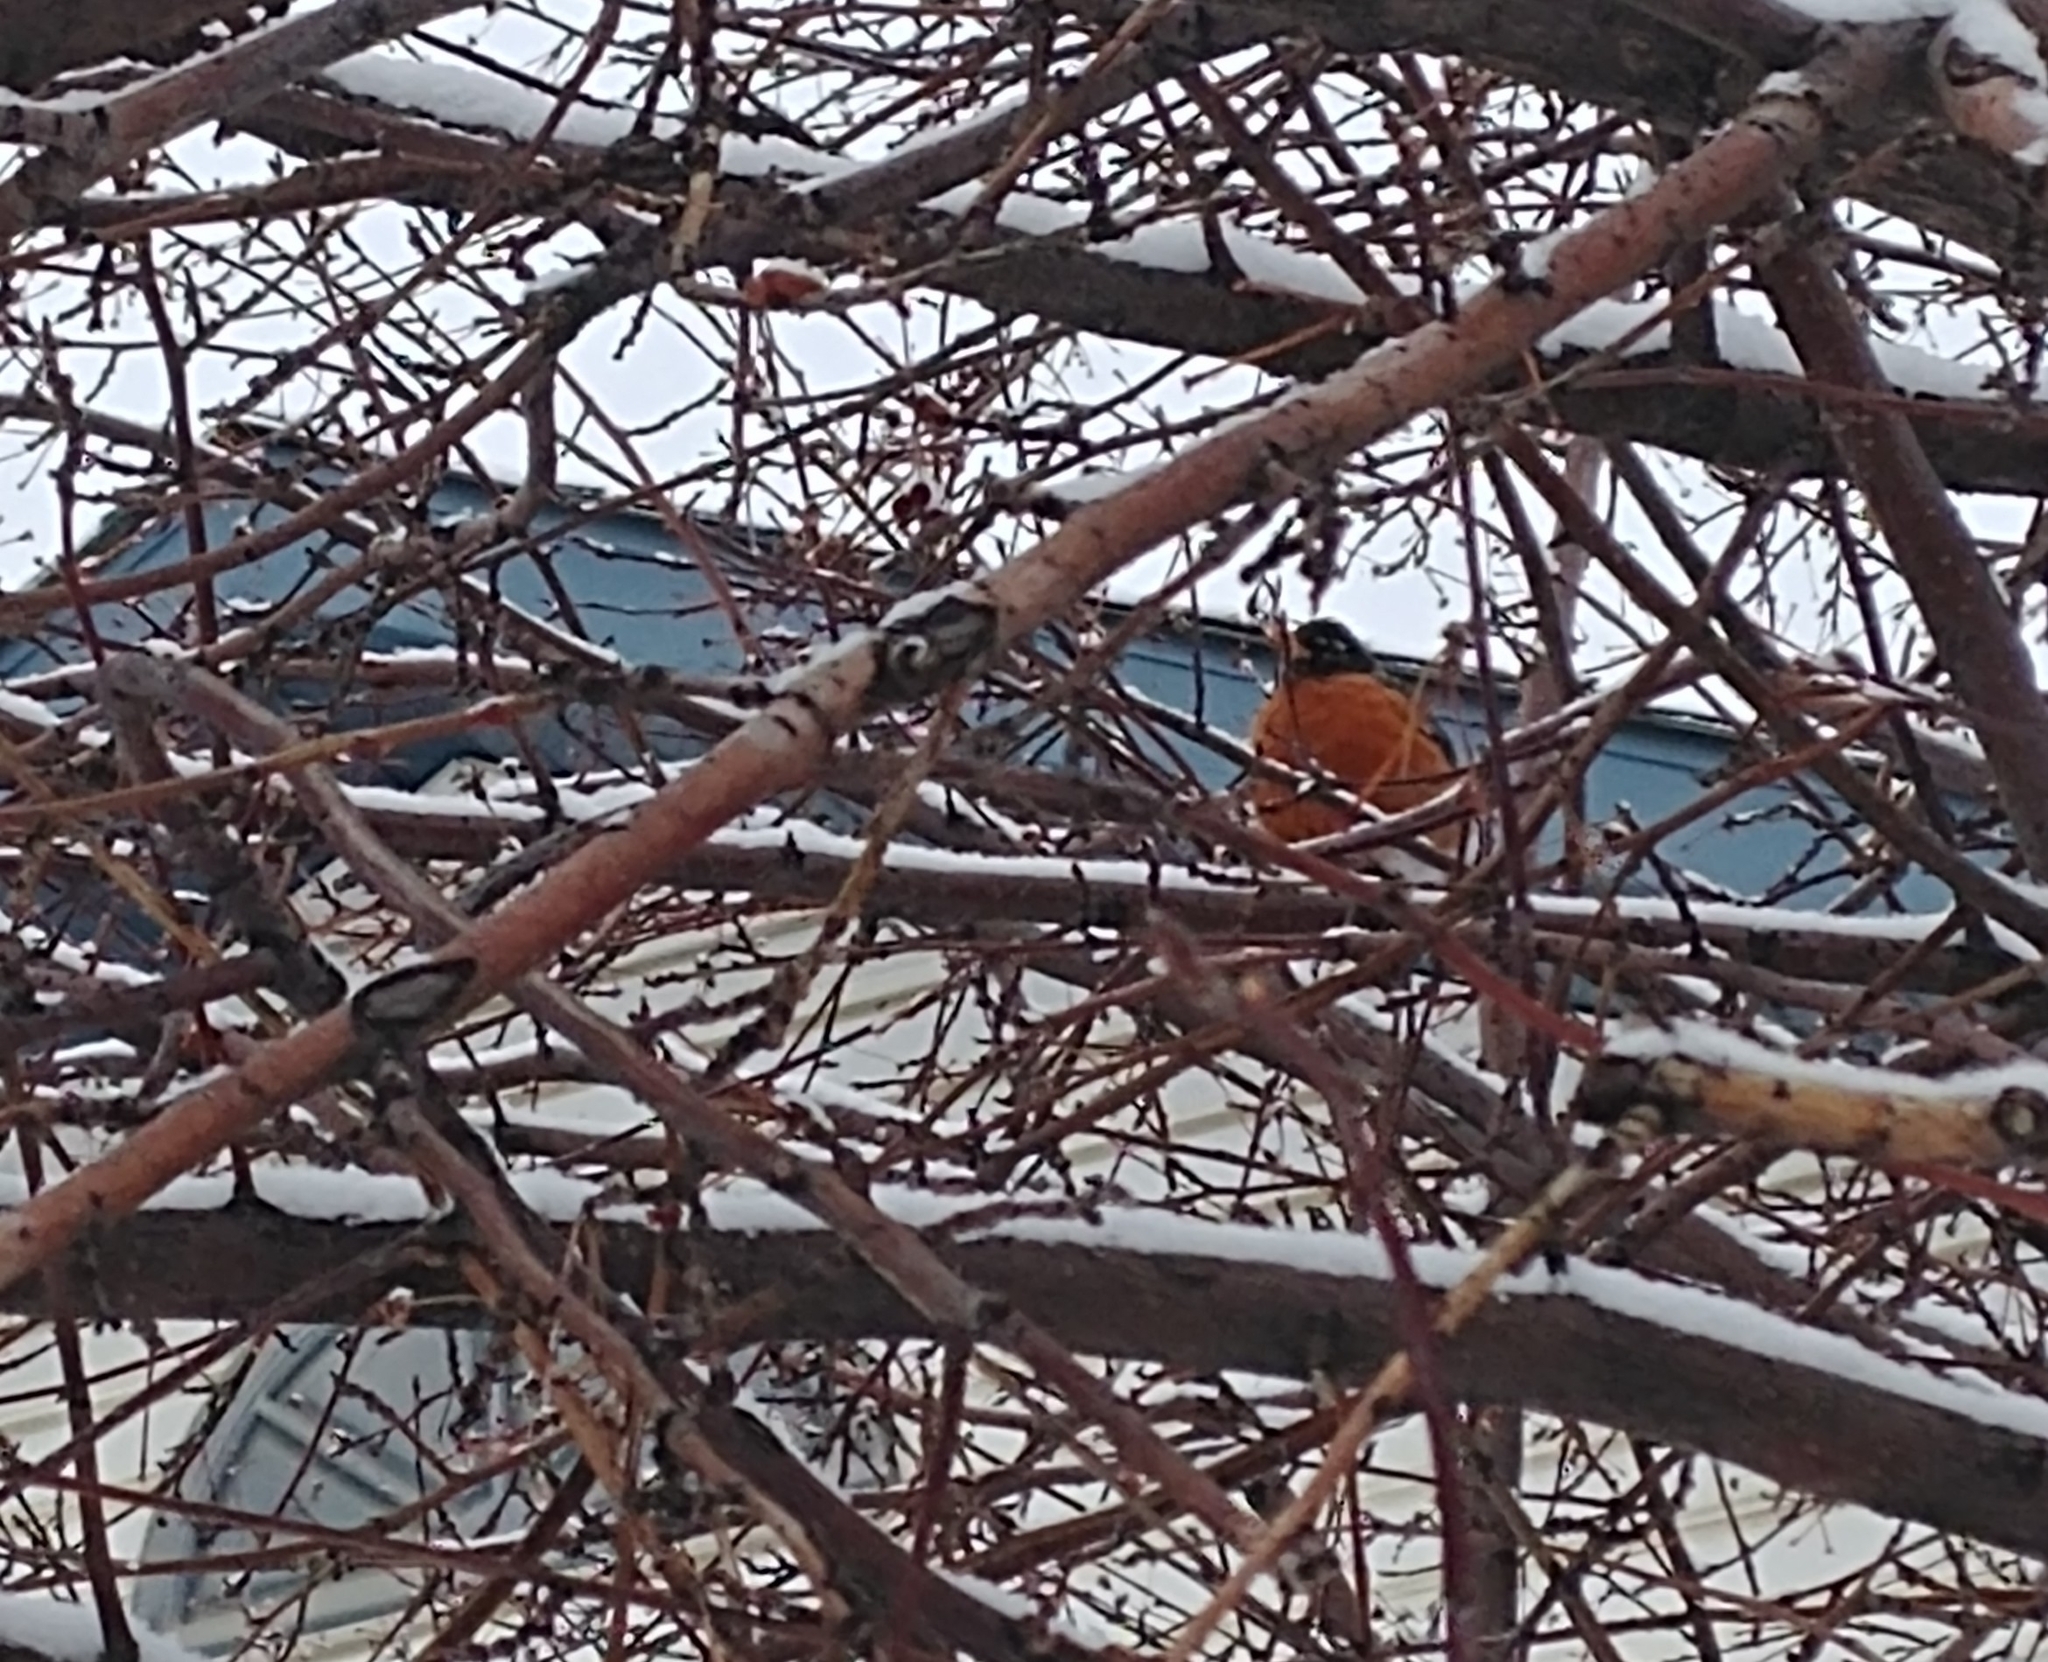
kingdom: Animalia
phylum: Chordata
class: Aves
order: Passeriformes
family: Turdidae
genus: Turdus
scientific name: Turdus migratorius
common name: American robin
